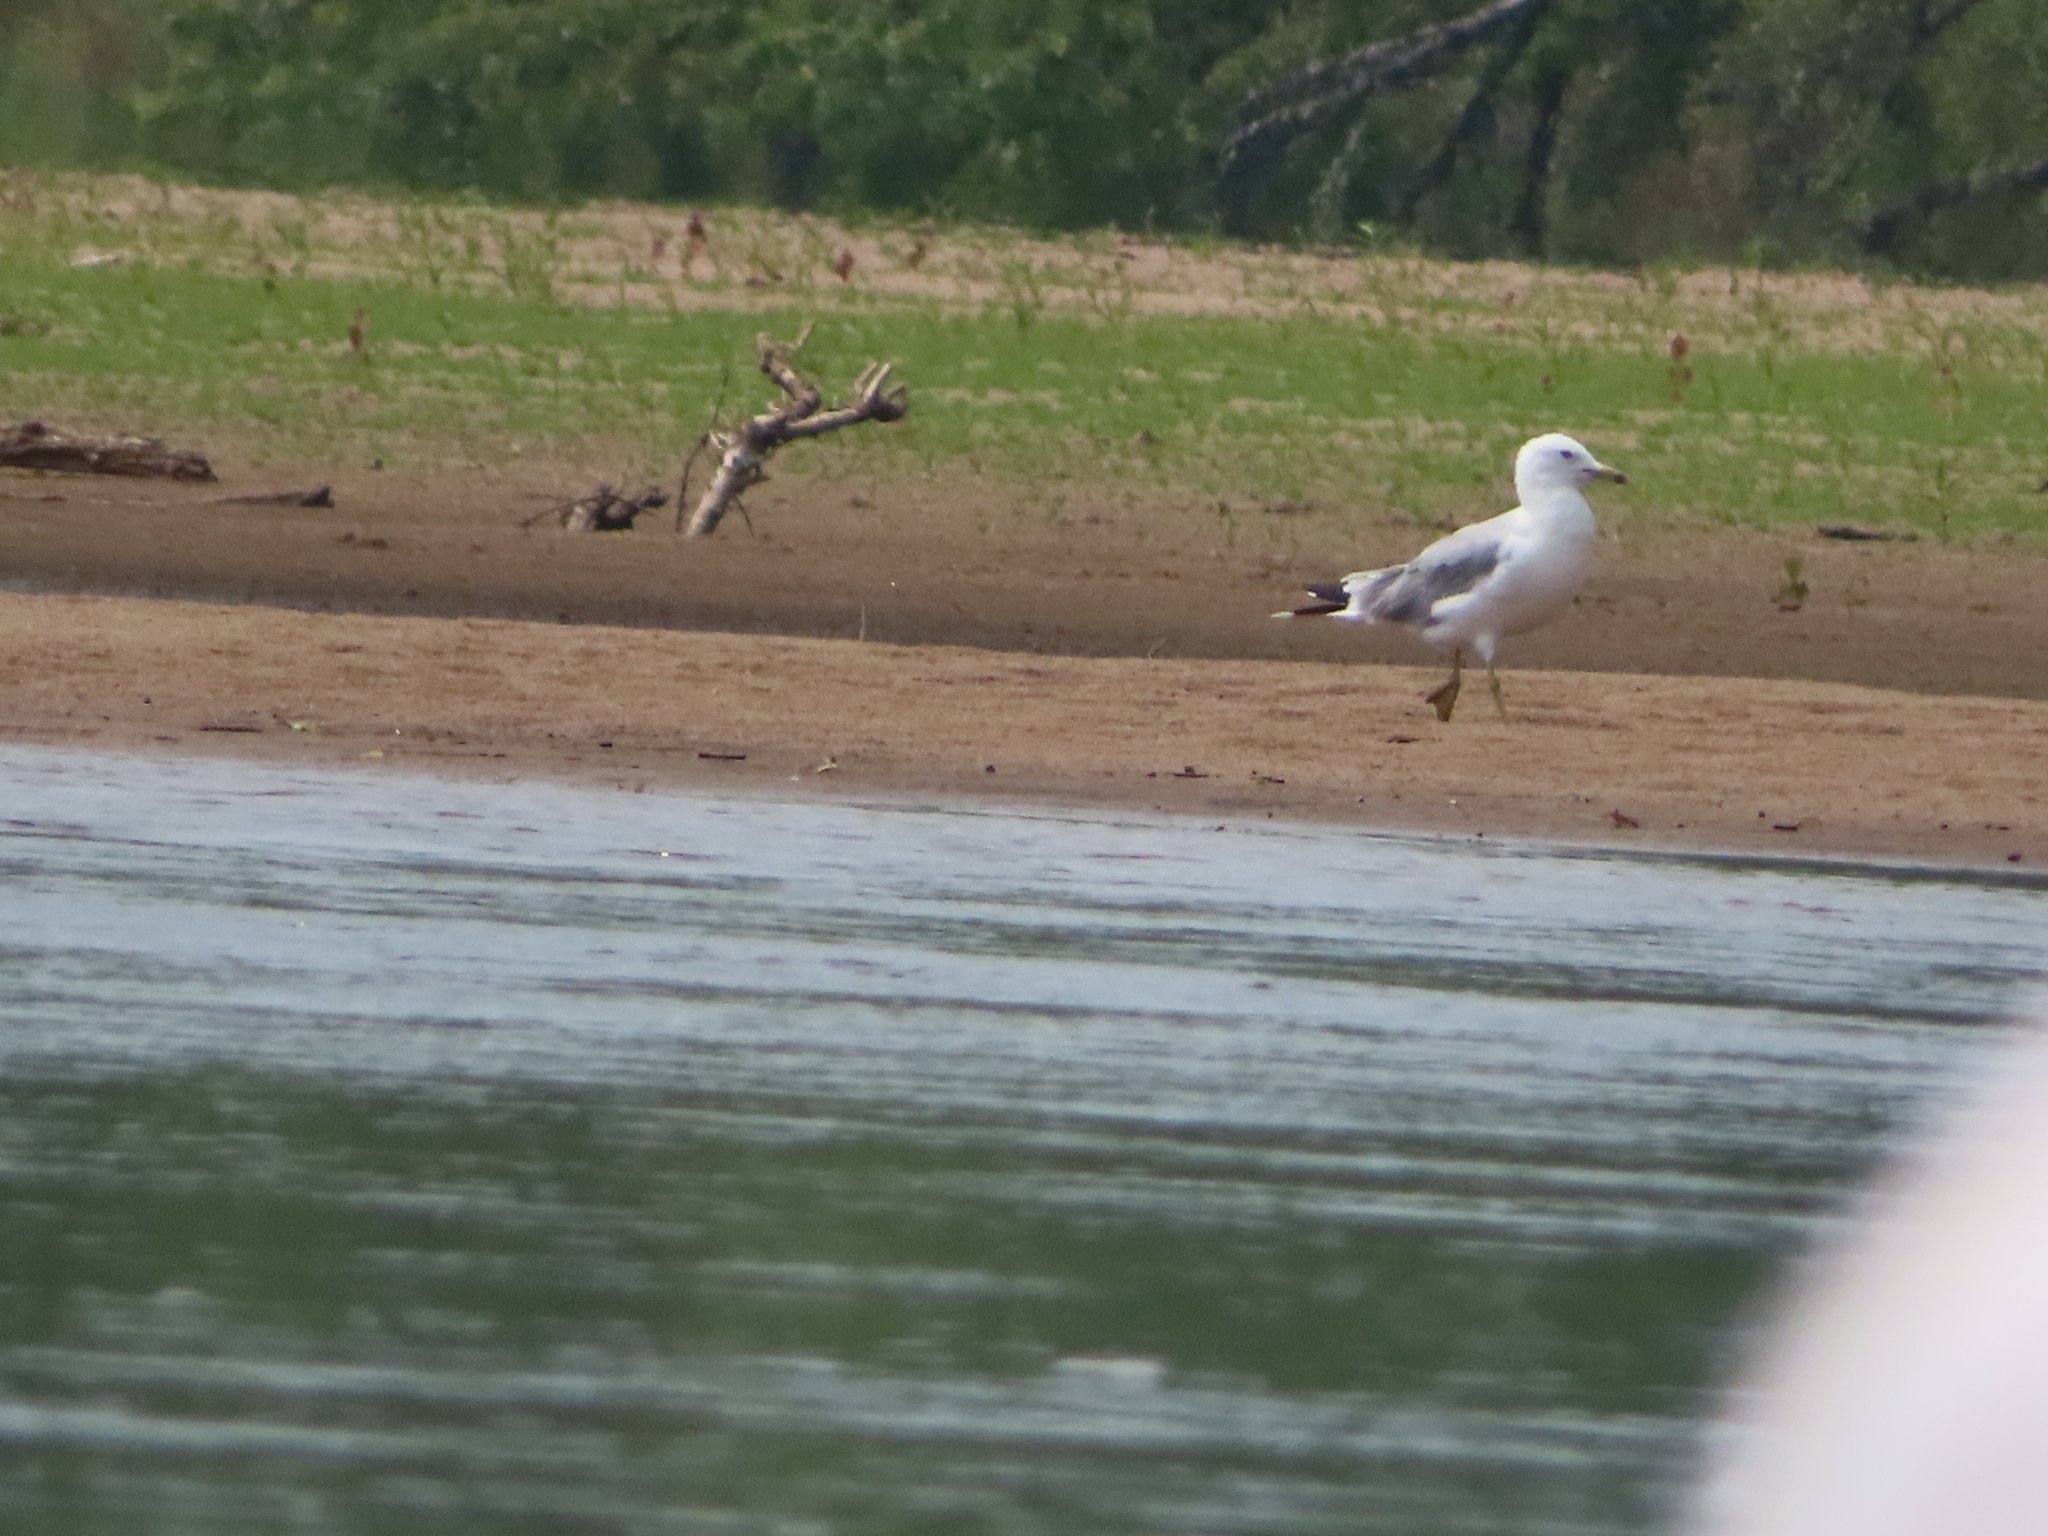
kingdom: Animalia
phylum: Chordata
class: Aves
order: Charadriiformes
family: Laridae
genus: Larus
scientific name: Larus delawarensis
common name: Ring-billed gull
